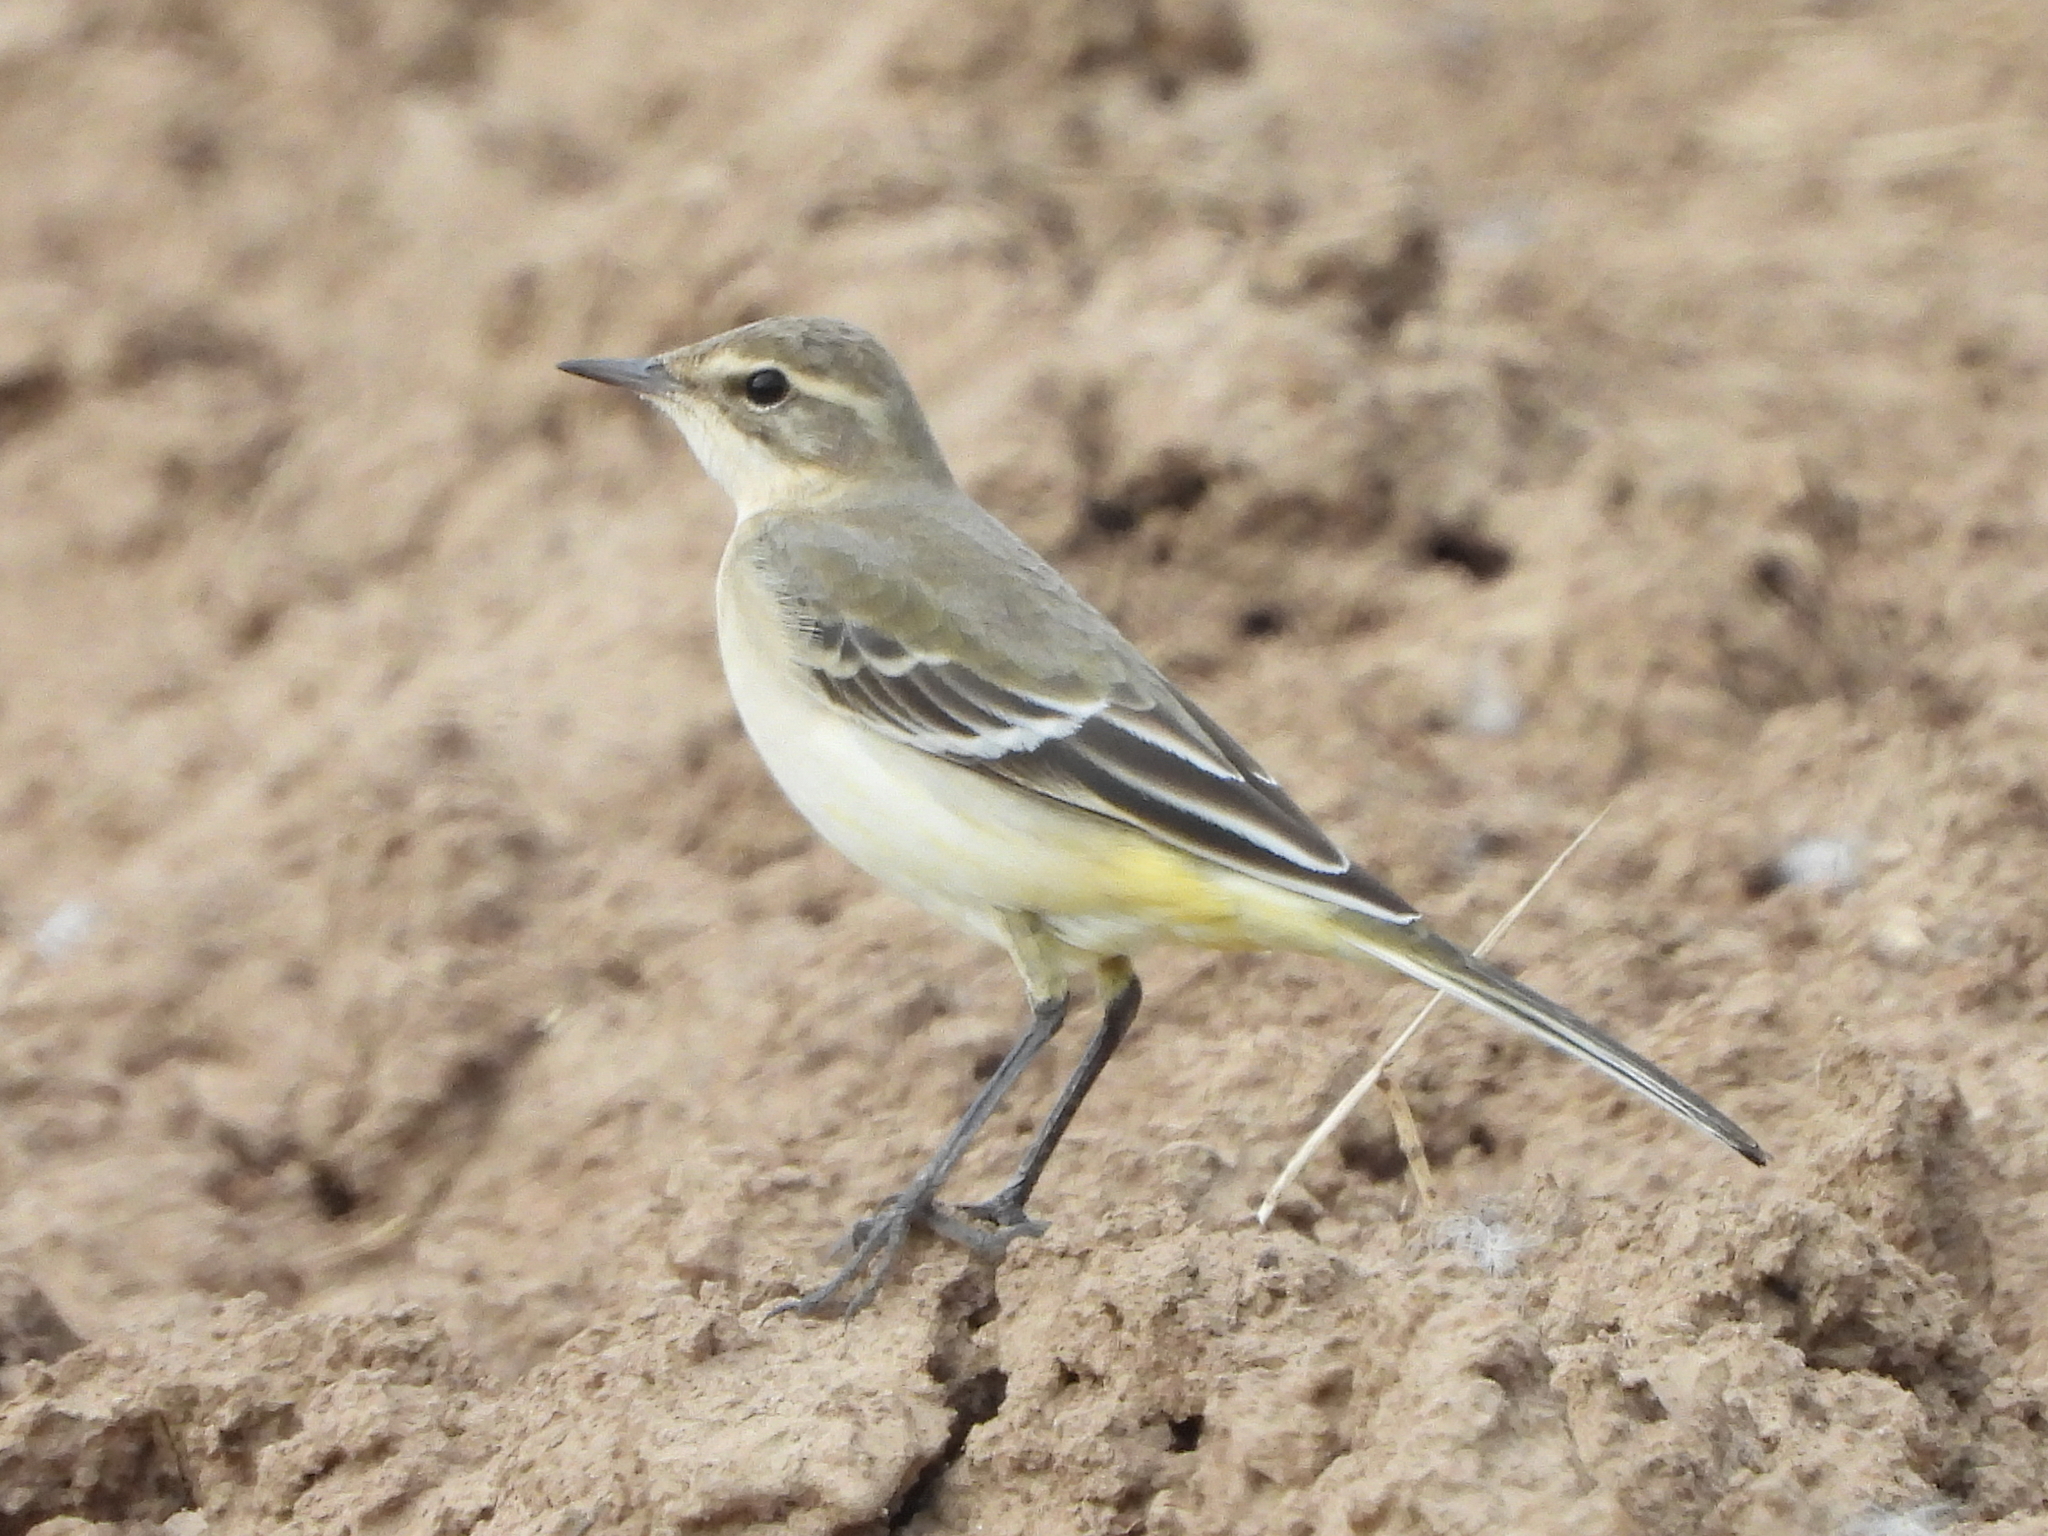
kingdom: Animalia
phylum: Chordata
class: Aves
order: Passeriformes
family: Motacillidae
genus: Motacilla
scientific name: Motacilla flava
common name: Western yellow wagtail
